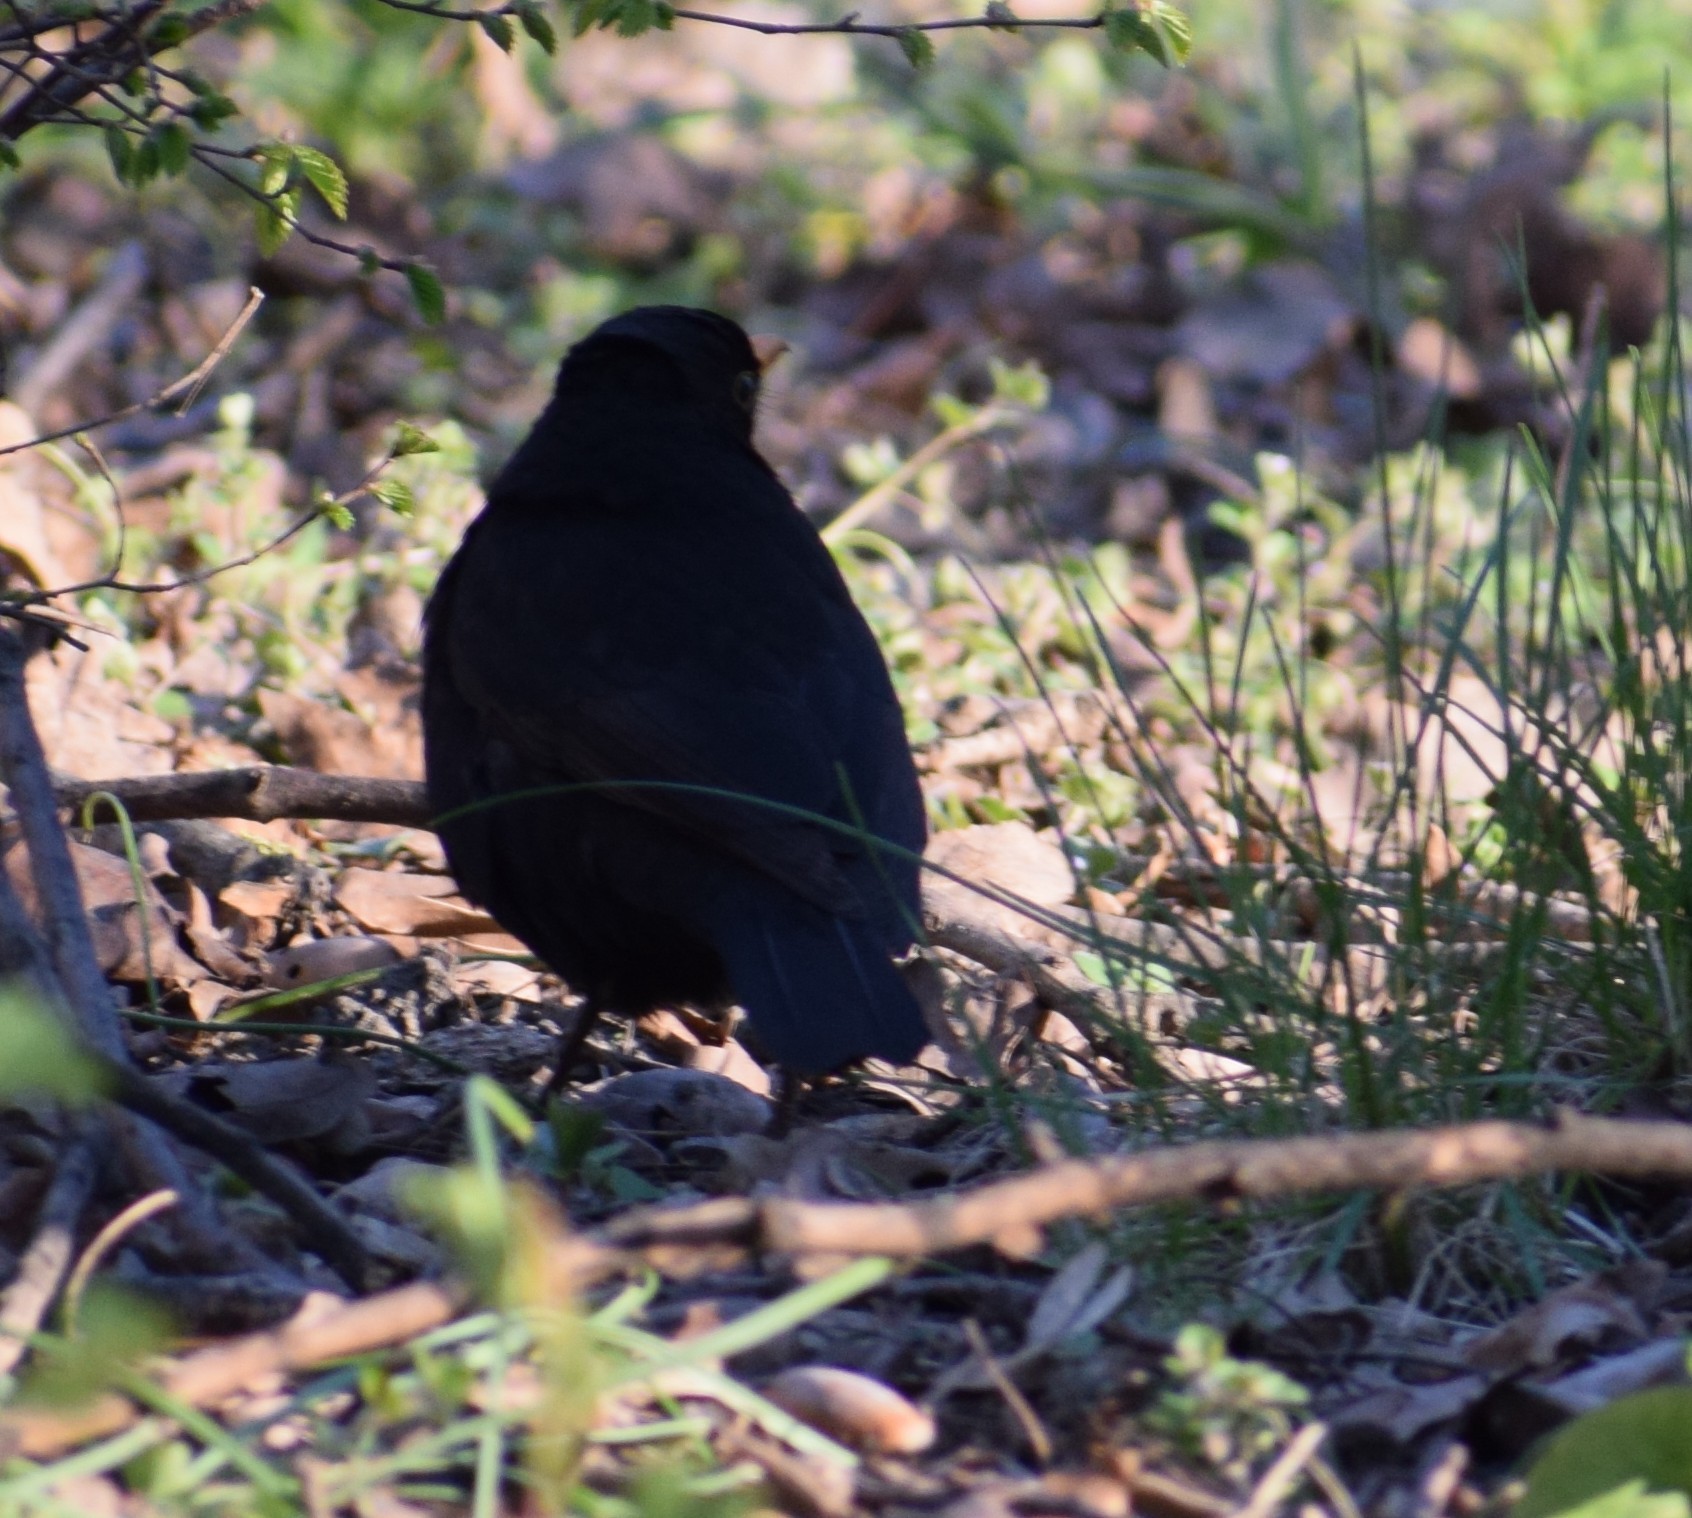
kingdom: Animalia
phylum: Chordata
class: Aves
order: Passeriformes
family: Turdidae
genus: Turdus
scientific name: Turdus merula
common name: Common blackbird
